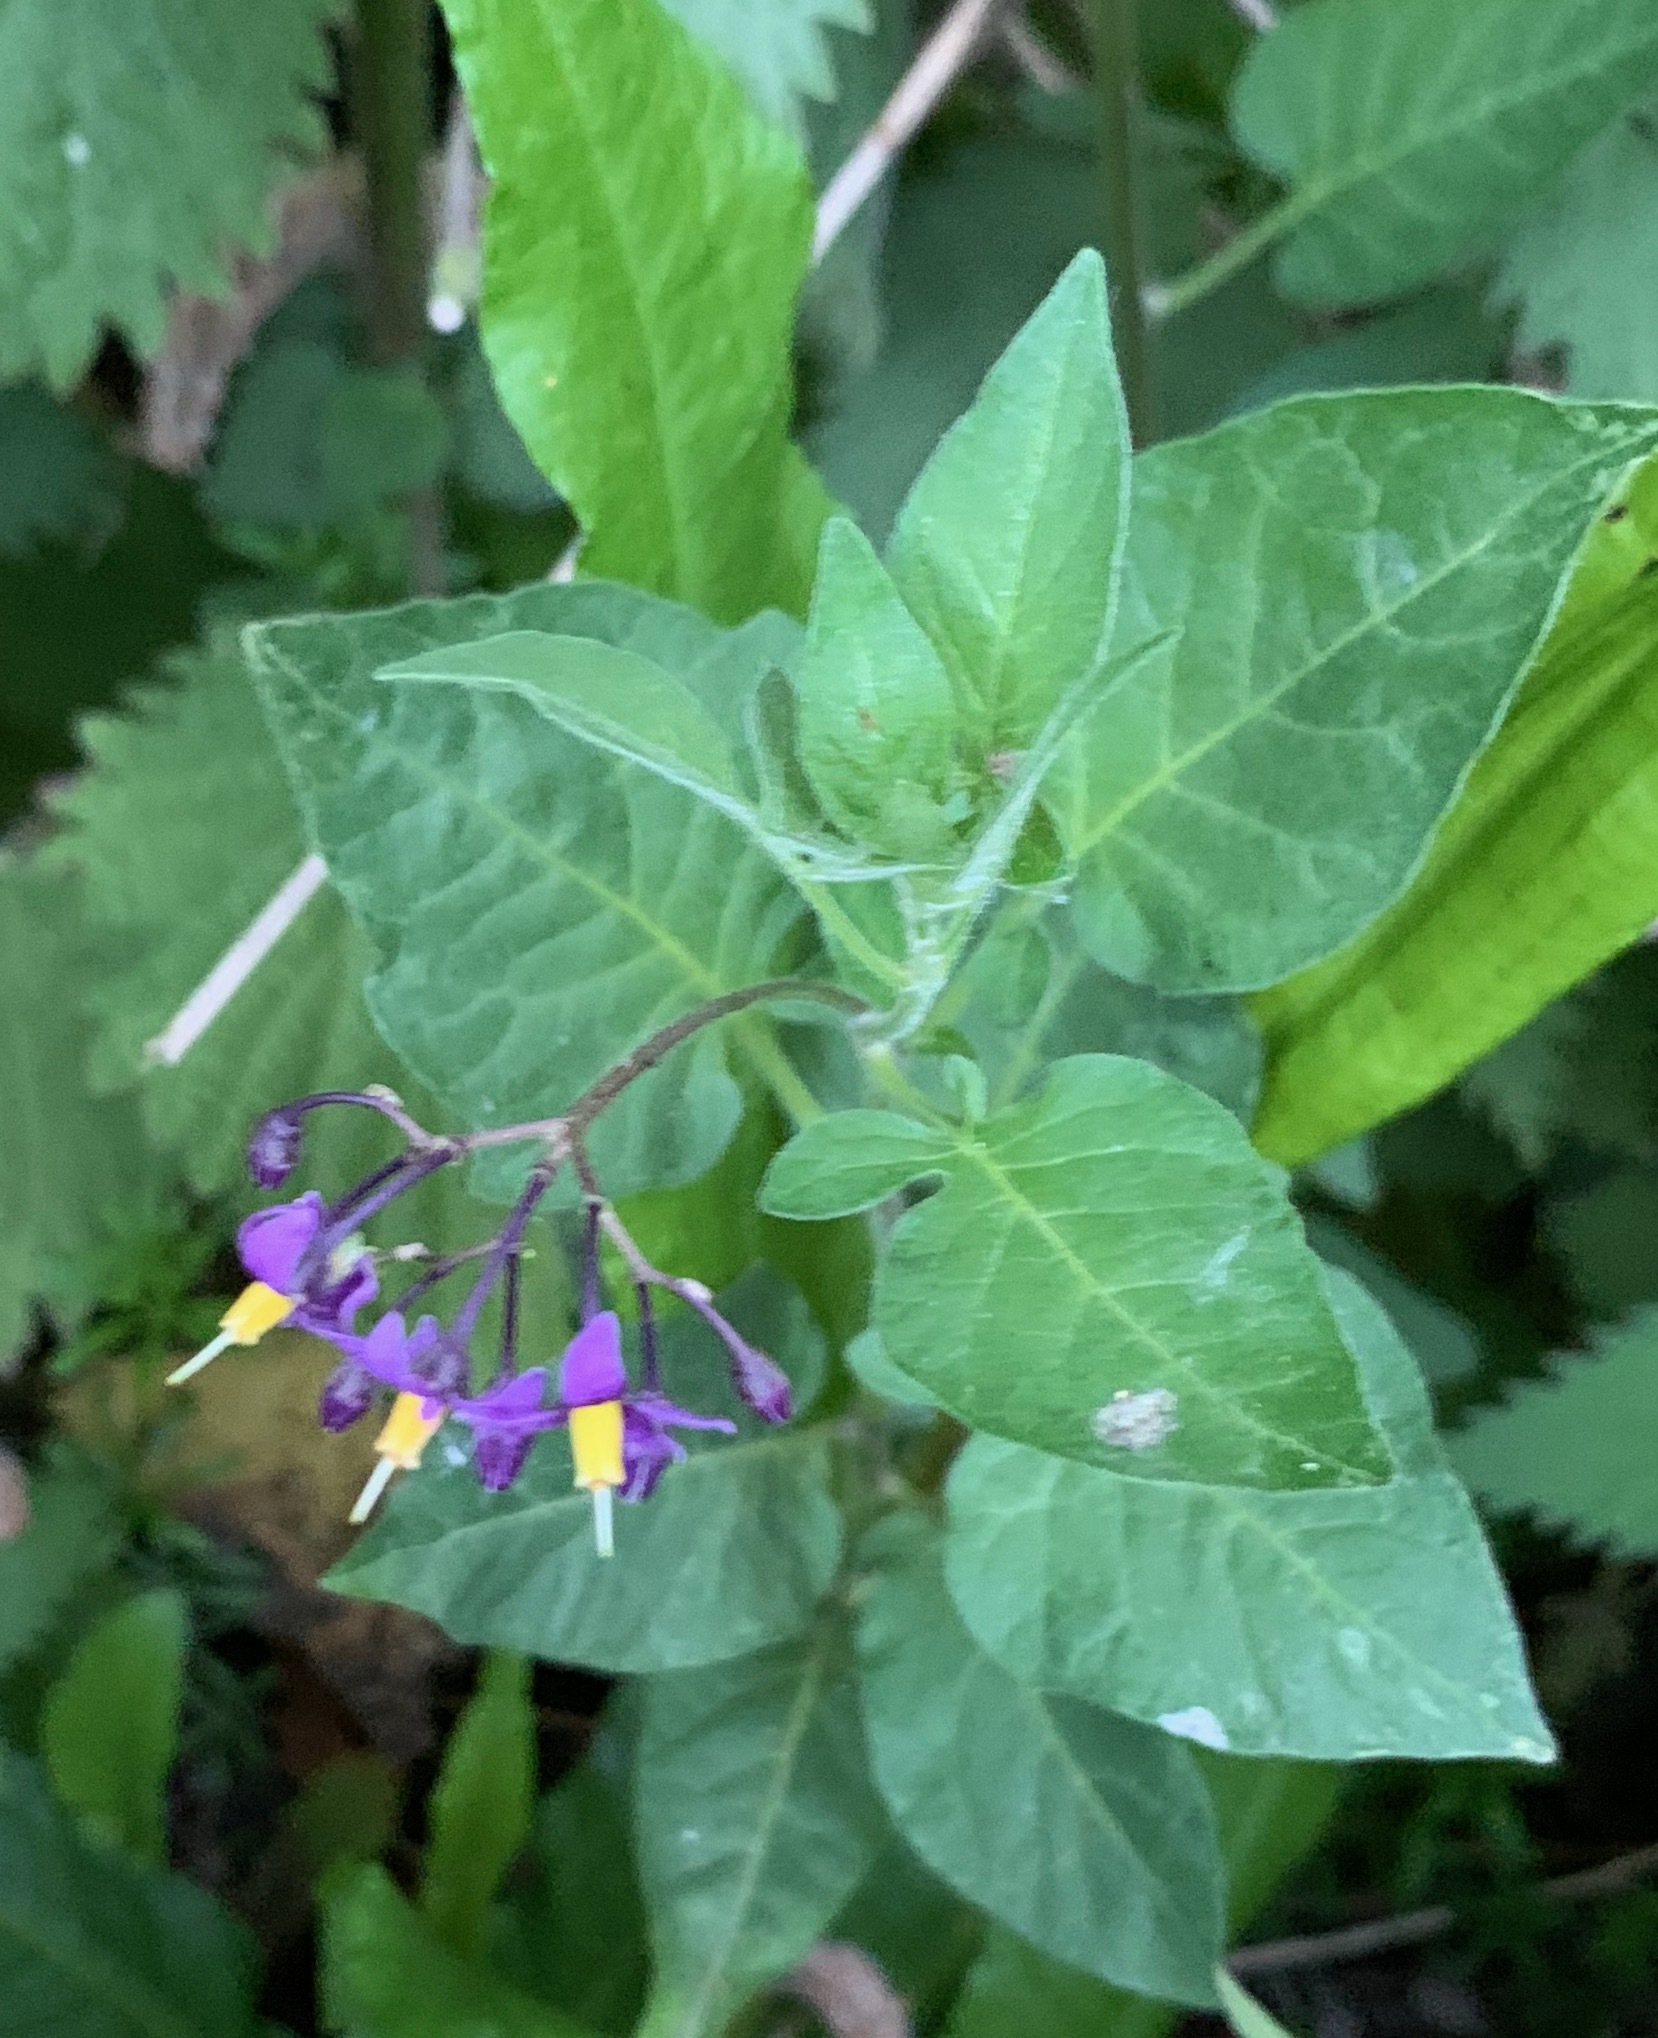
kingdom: Plantae
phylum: Tracheophyta
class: Magnoliopsida
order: Solanales
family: Solanaceae
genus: Solanum
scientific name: Solanum dulcamara
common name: Climbing nightshade
